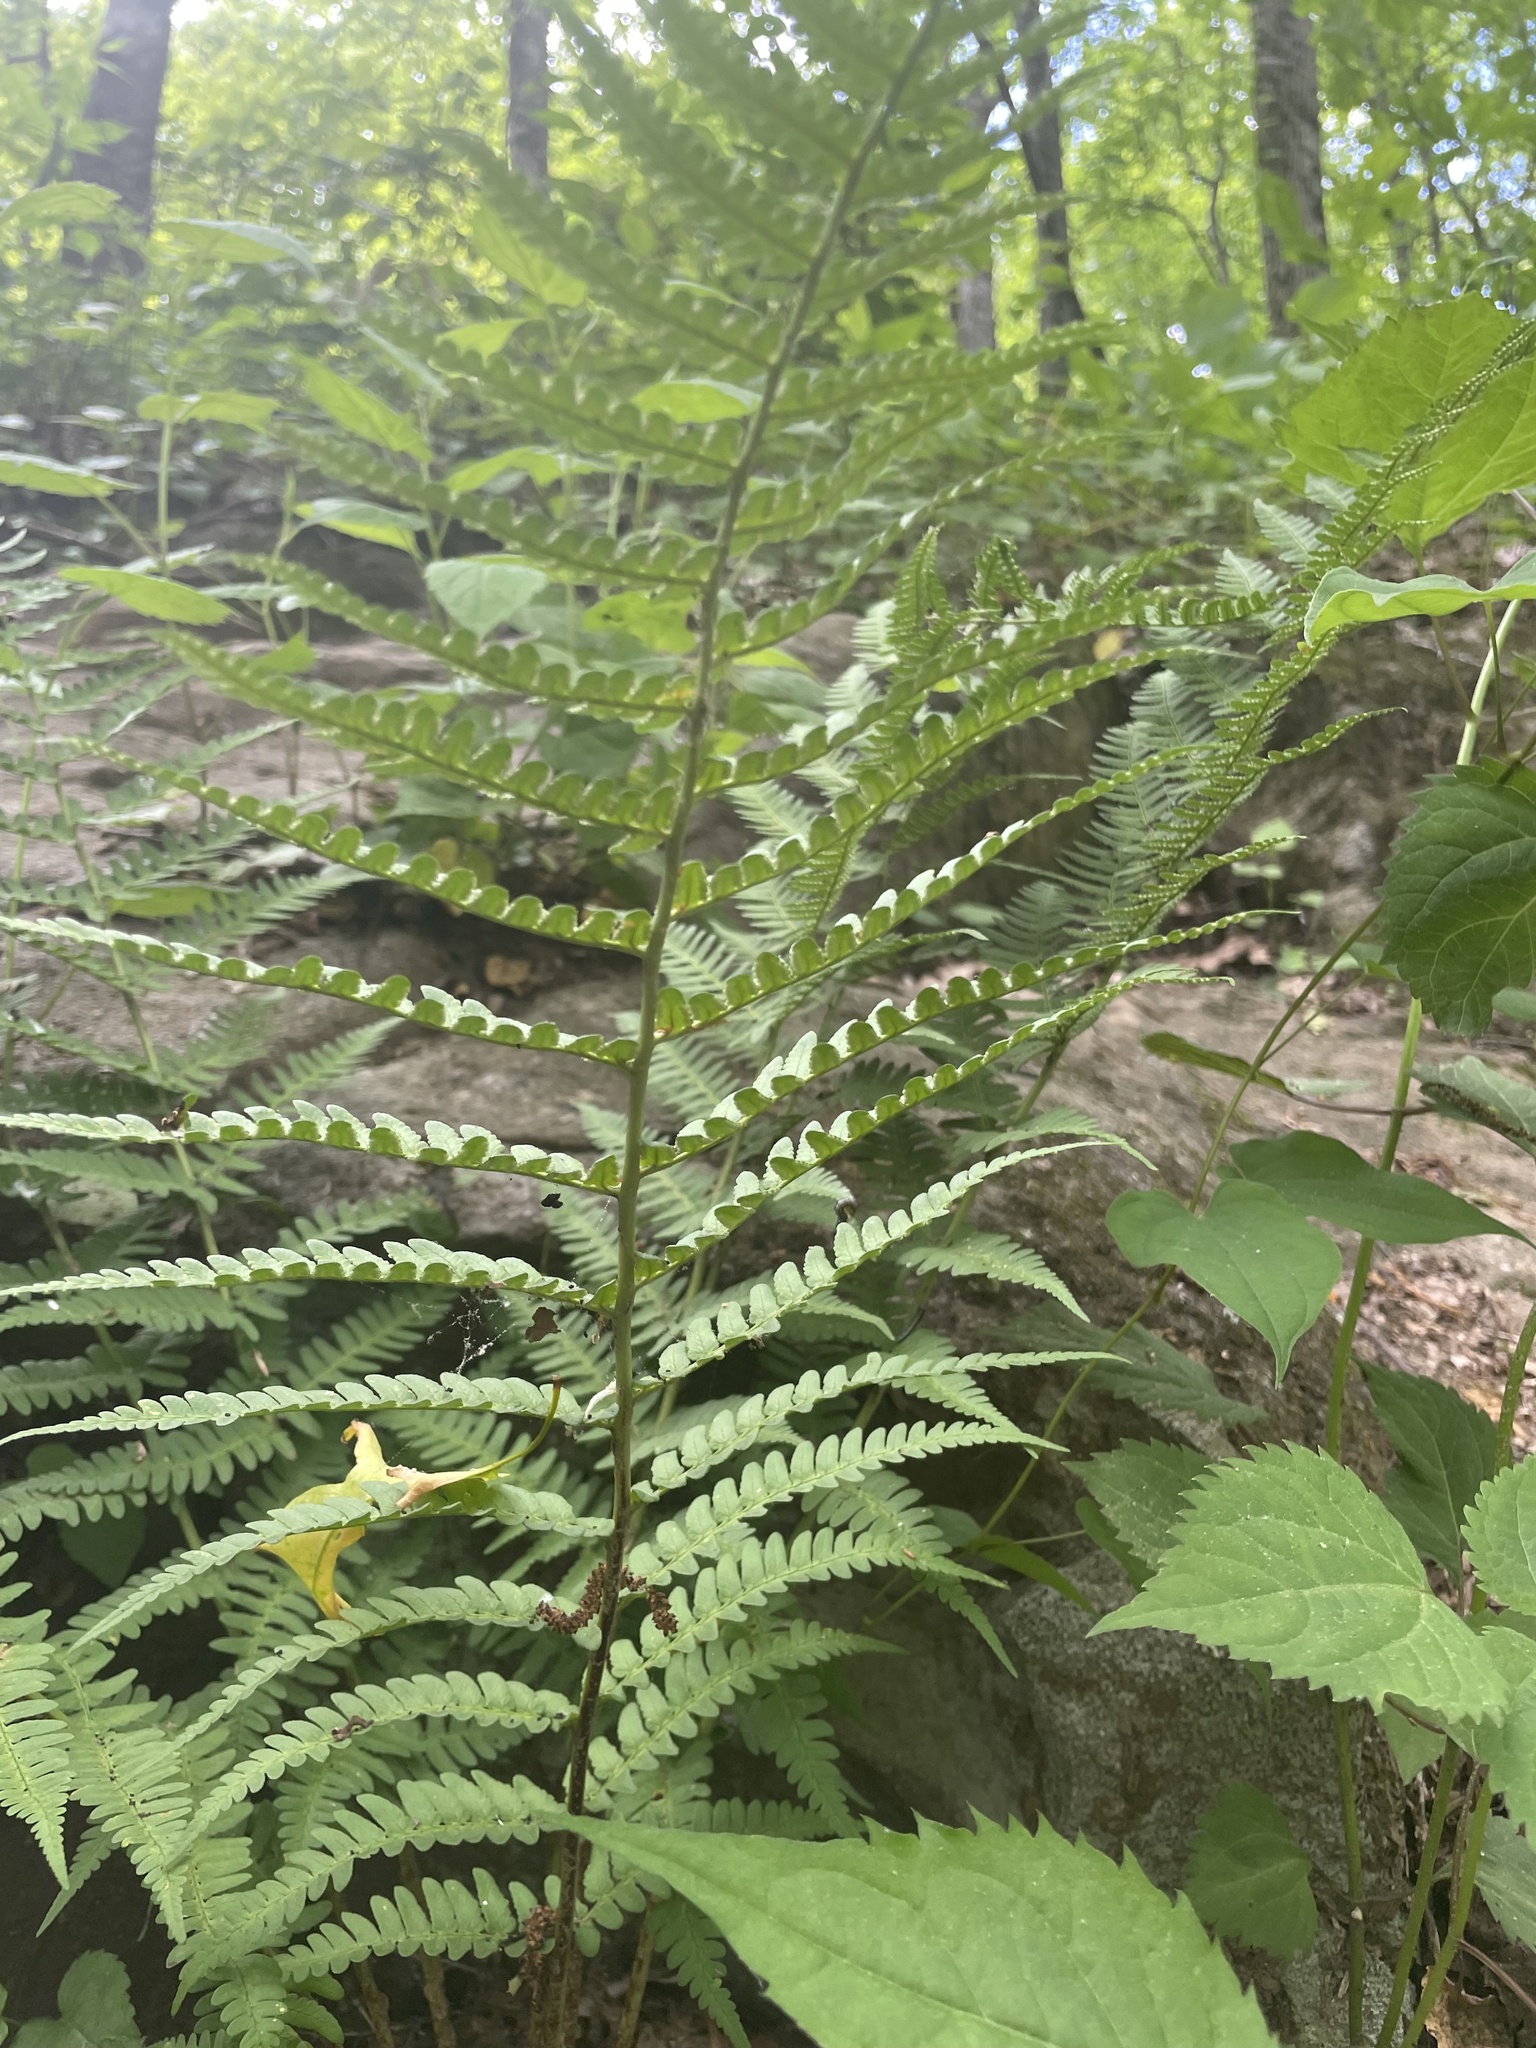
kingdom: Plantae
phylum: Tracheophyta
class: Polypodiopsida
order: Polypodiales
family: Dryopteridaceae
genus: Dryopteris
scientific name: Dryopteris marginalis
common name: Marginal wood fern
